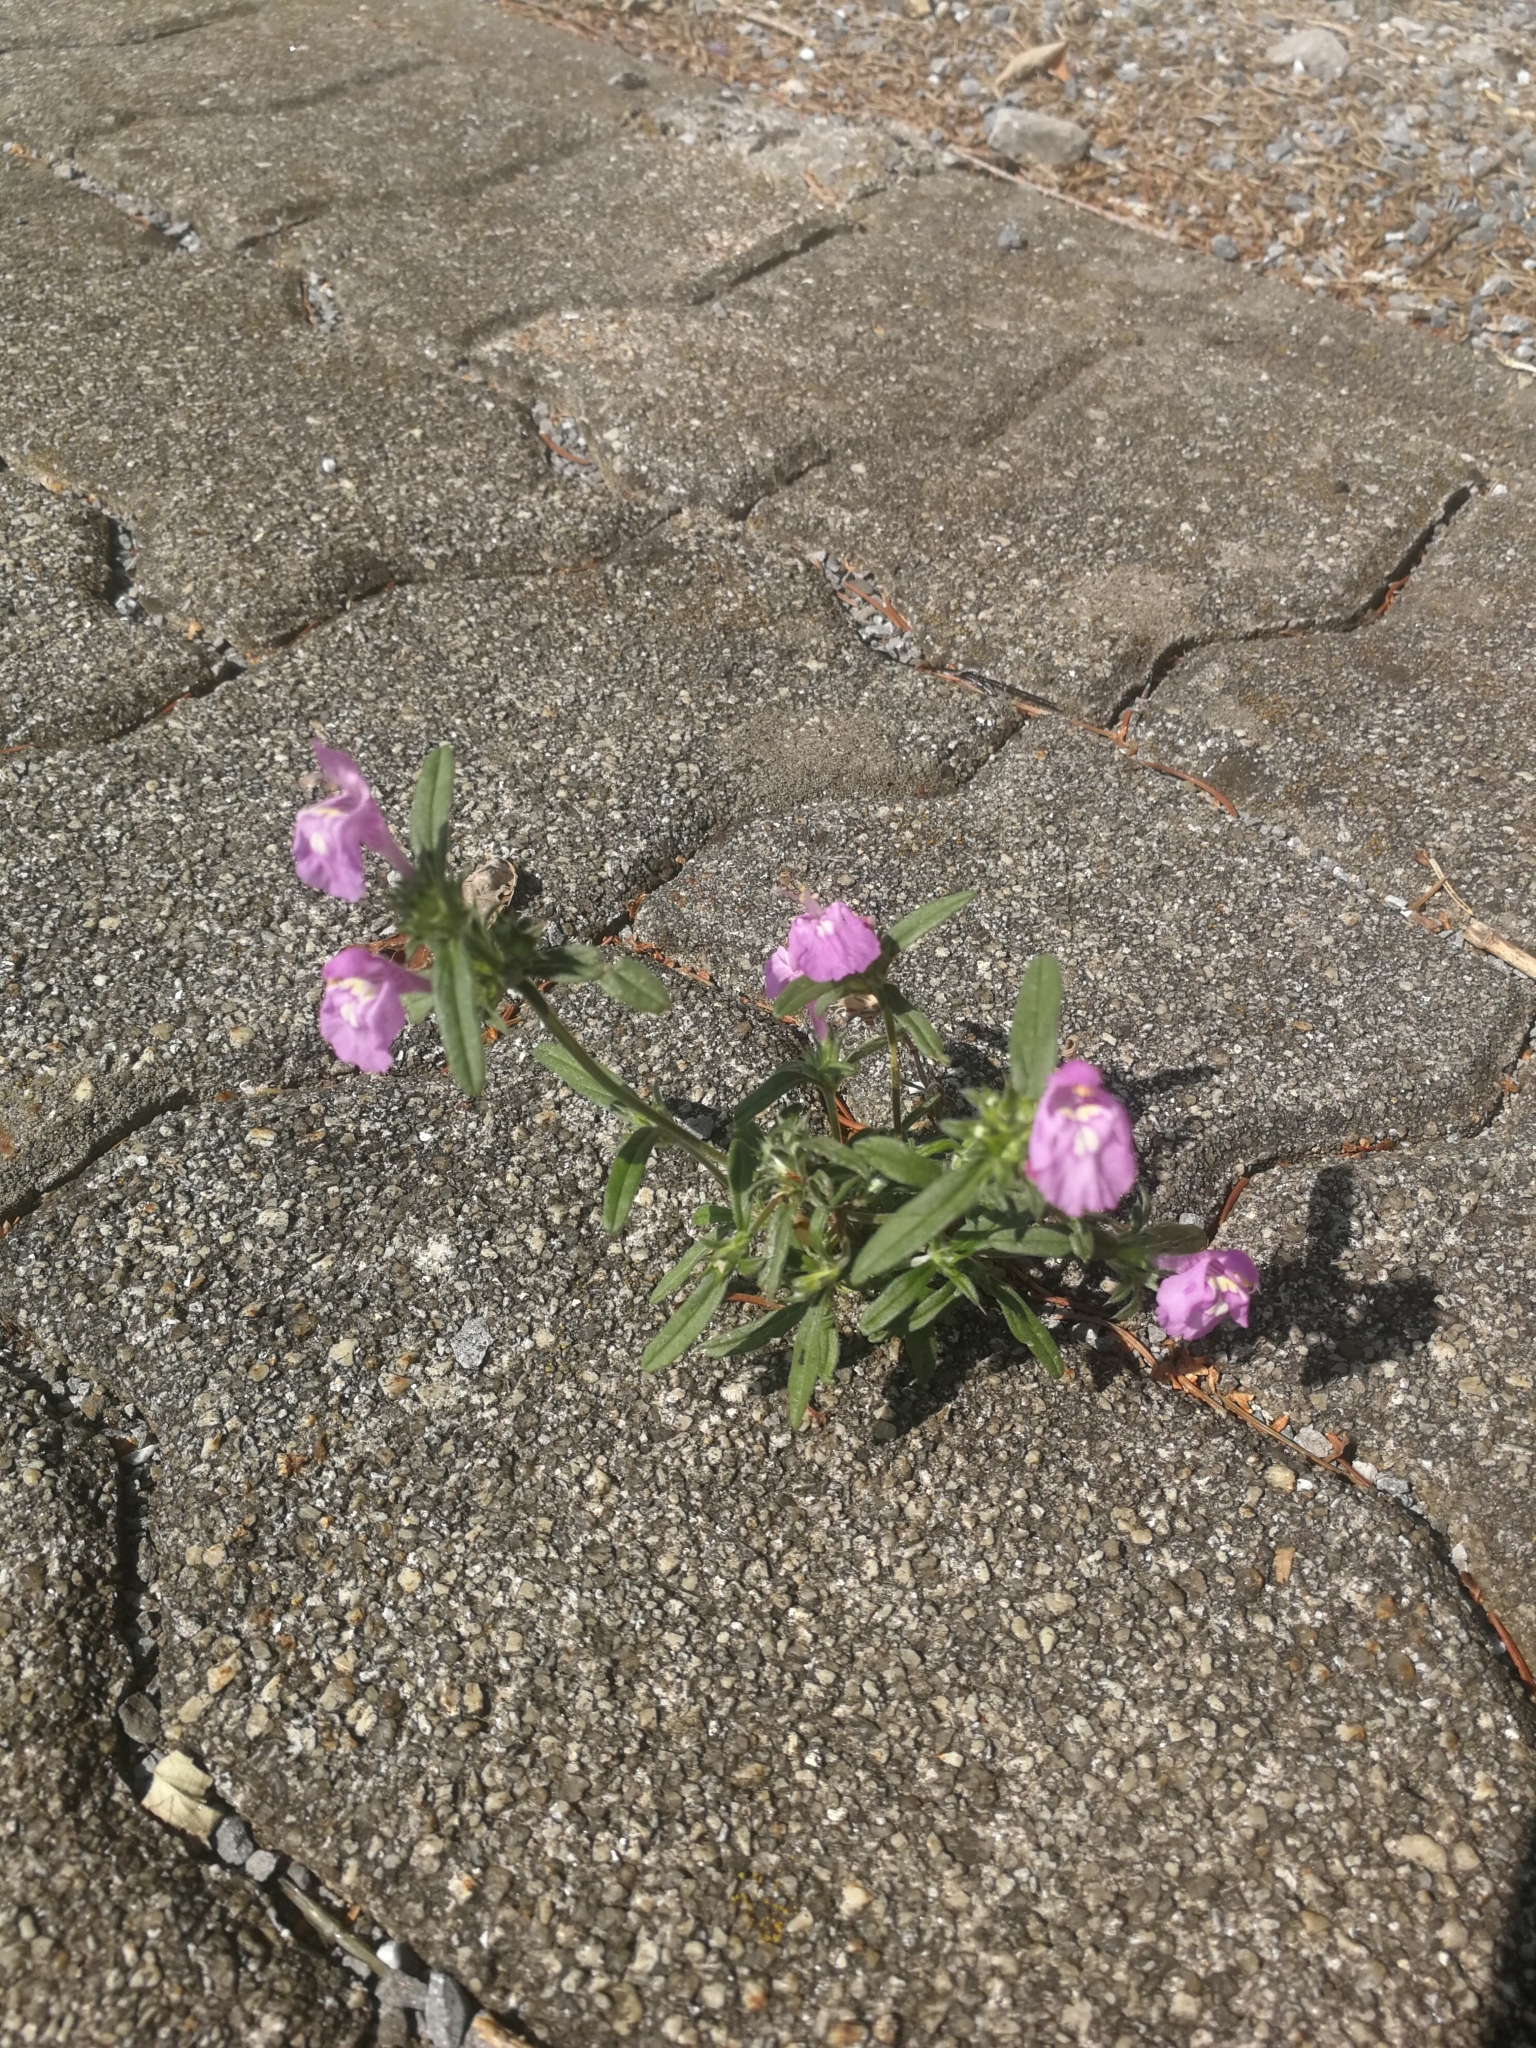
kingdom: Plantae
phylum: Tracheophyta
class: Magnoliopsida
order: Lamiales
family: Lamiaceae
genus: Galeopsis
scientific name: Galeopsis angustifolia
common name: Red hemp-nettle
